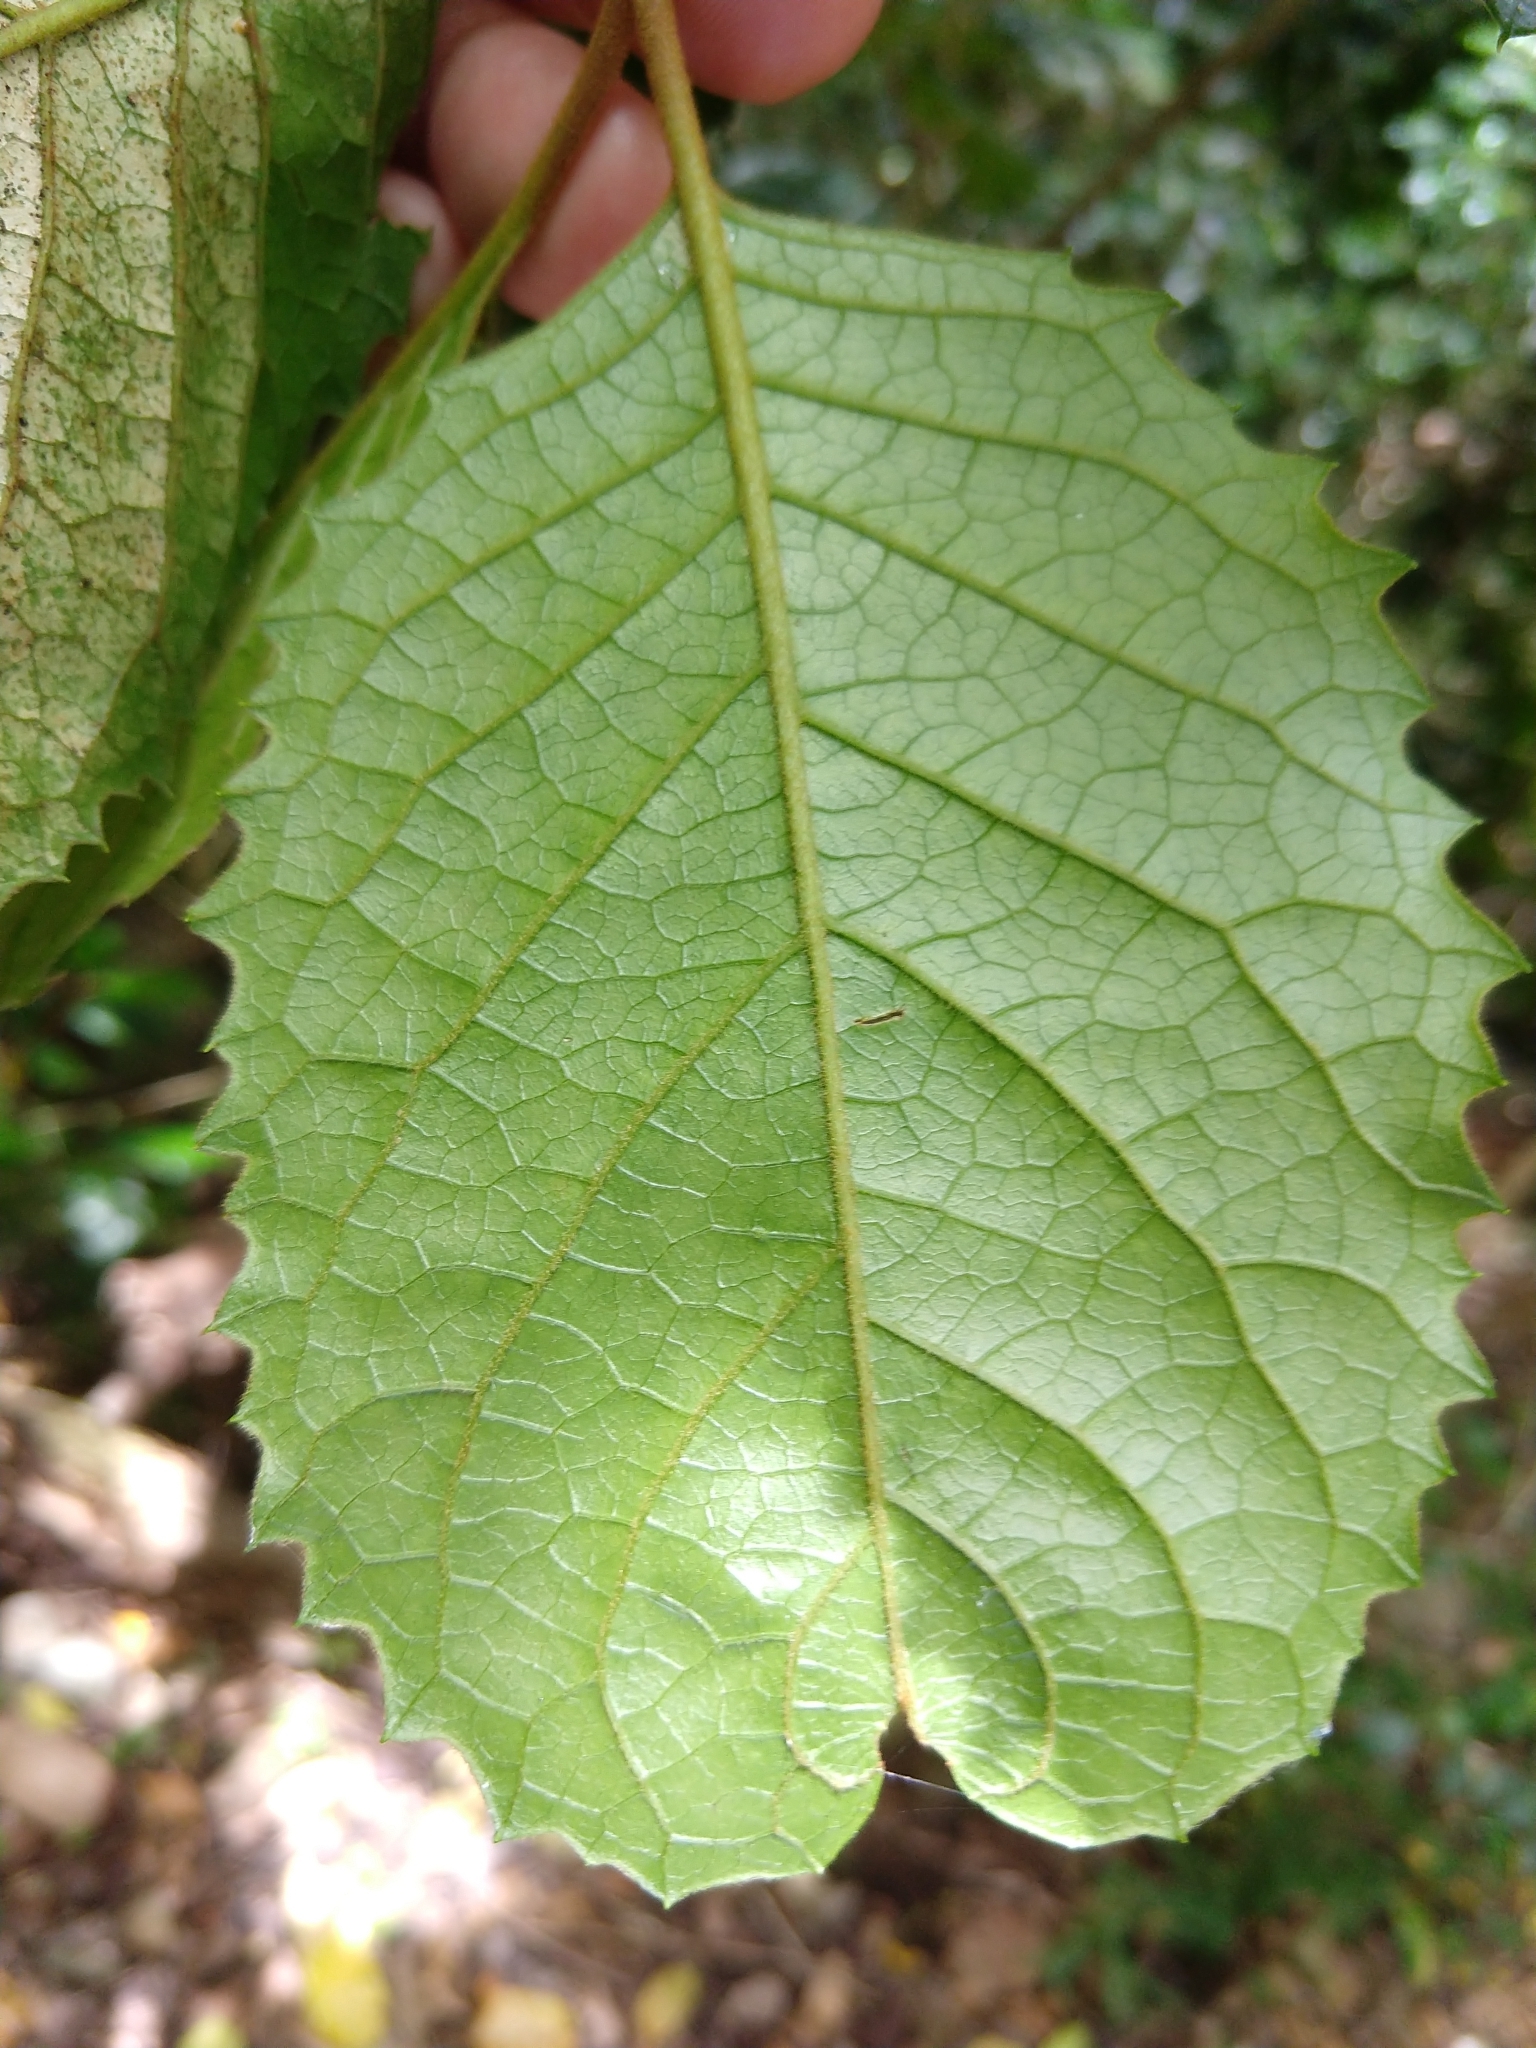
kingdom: Plantae
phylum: Tracheophyta
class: Magnoliopsida
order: Cornales
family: Curtisiaceae
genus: Curtisia
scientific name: Curtisia dentata
